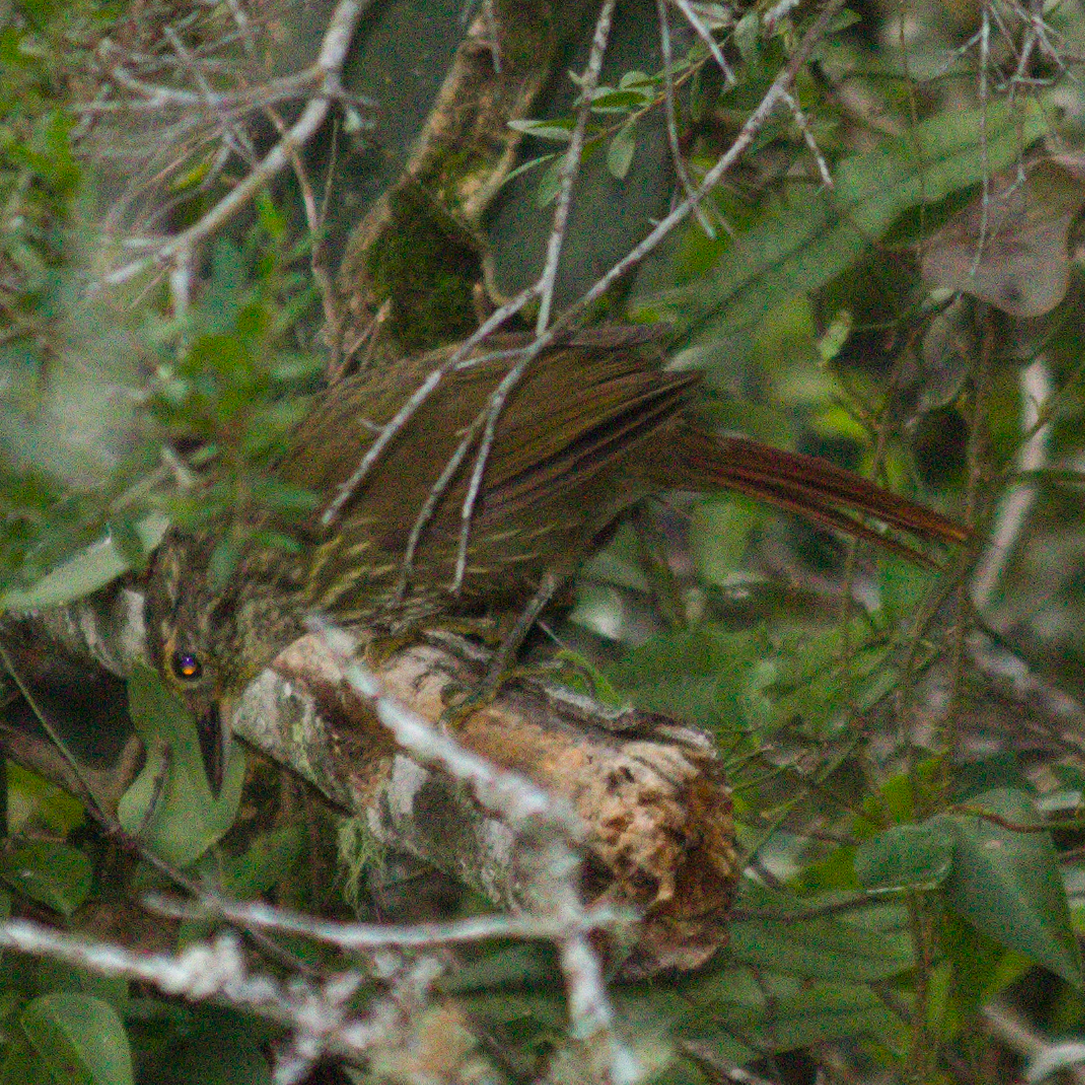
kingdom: Animalia
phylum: Chordata
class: Aves
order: Passeriformes
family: Furnariidae
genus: Syndactyla
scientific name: Syndactyla rufosuperciliata
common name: Buff-browed foliage-gleaner
